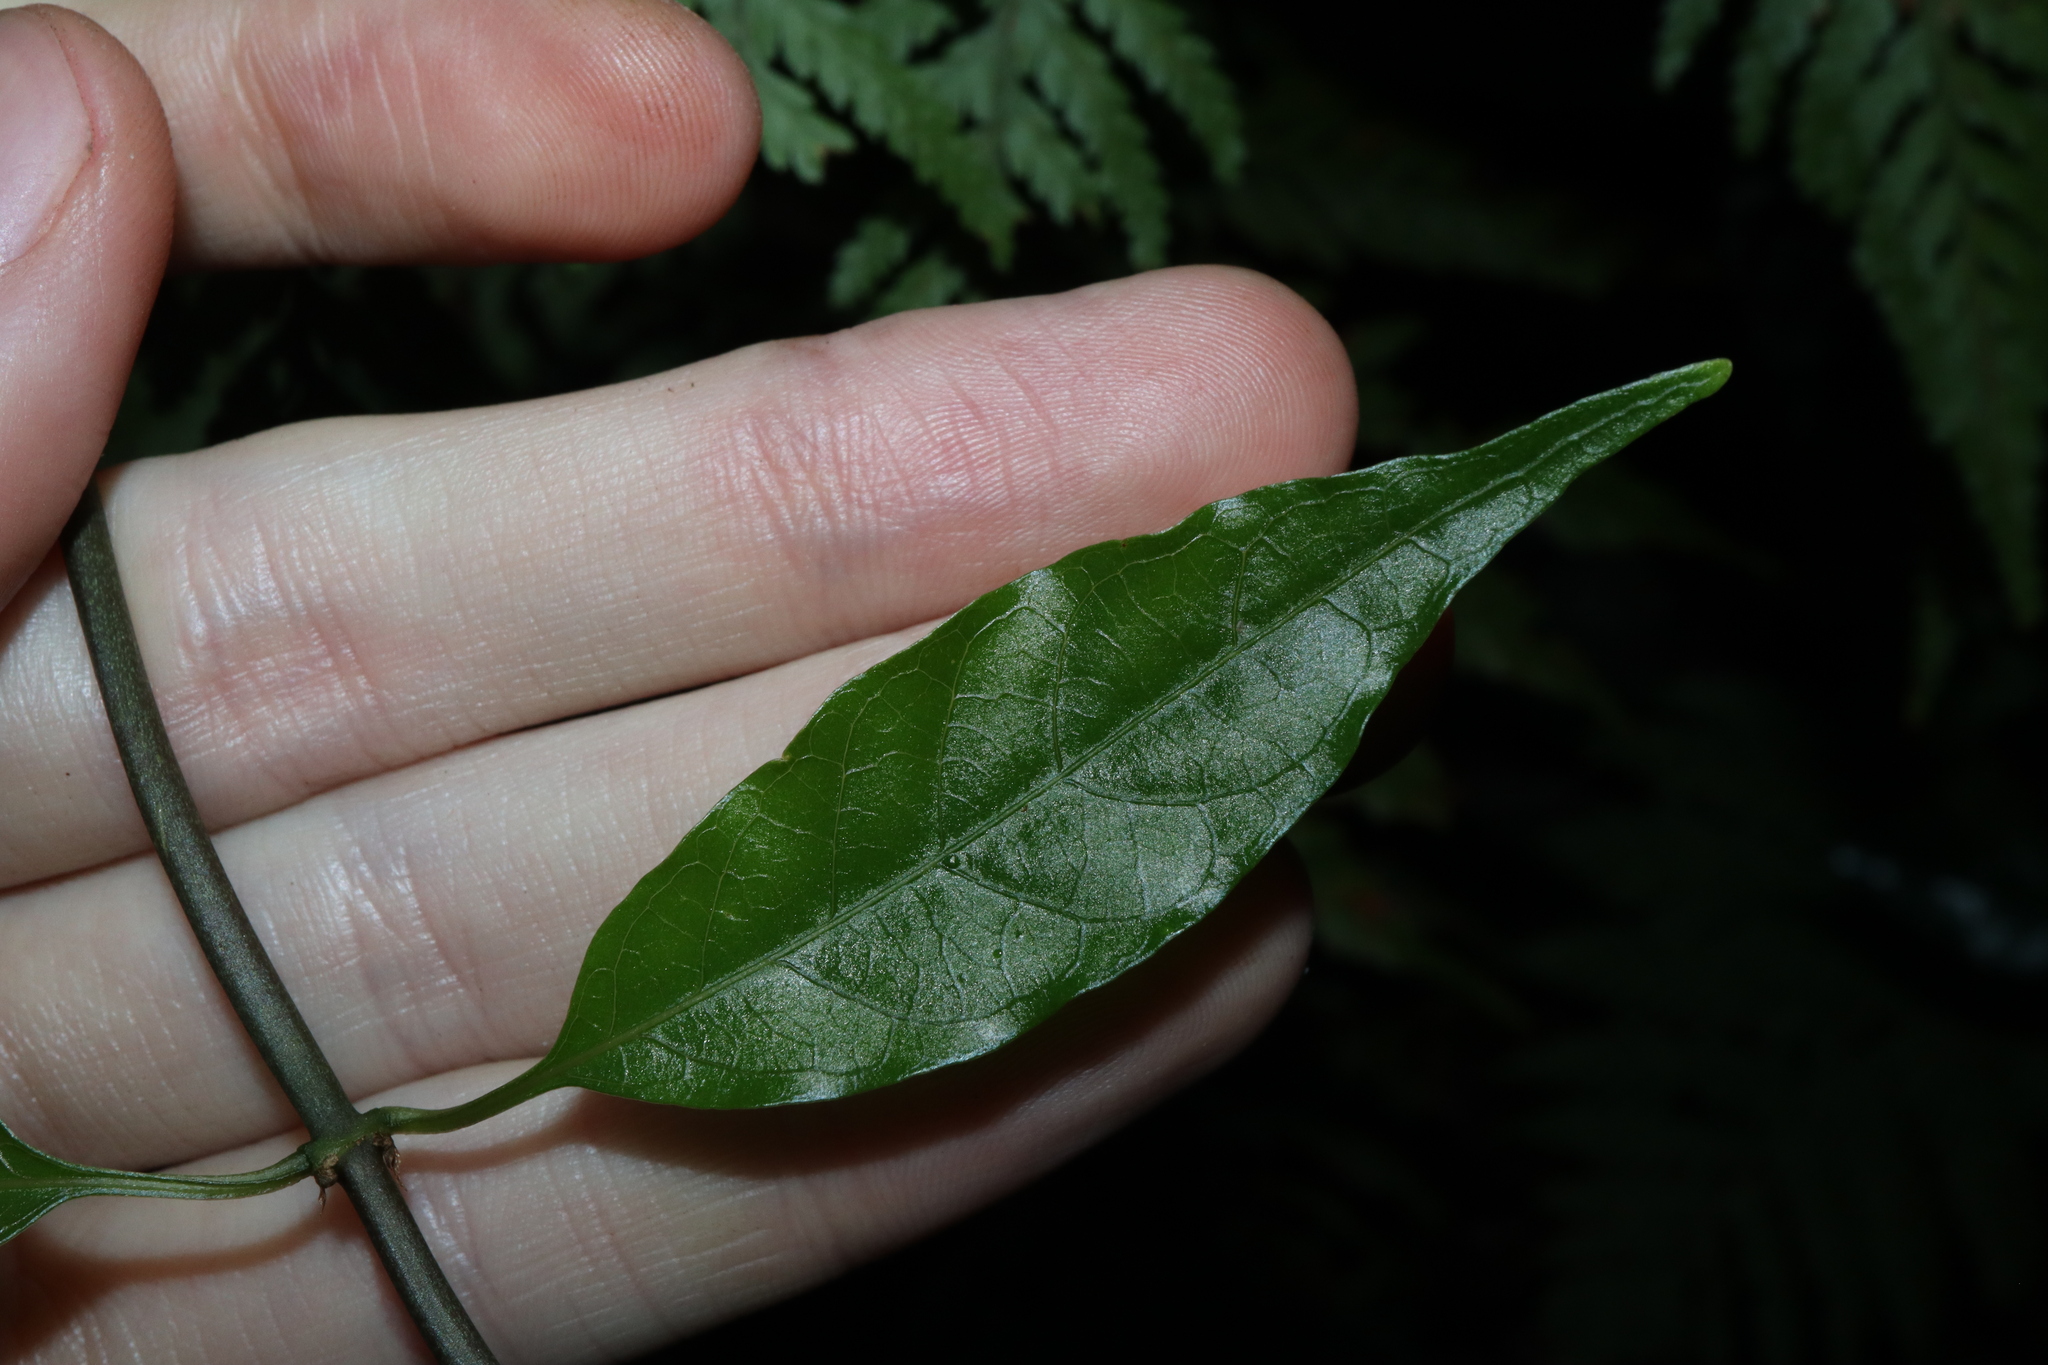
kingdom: Plantae
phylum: Tracheophyta
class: Magnoliopsida
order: Gentianales
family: Rubiaceae
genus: Gynochthodes
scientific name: Gynochthodes jasminoides
